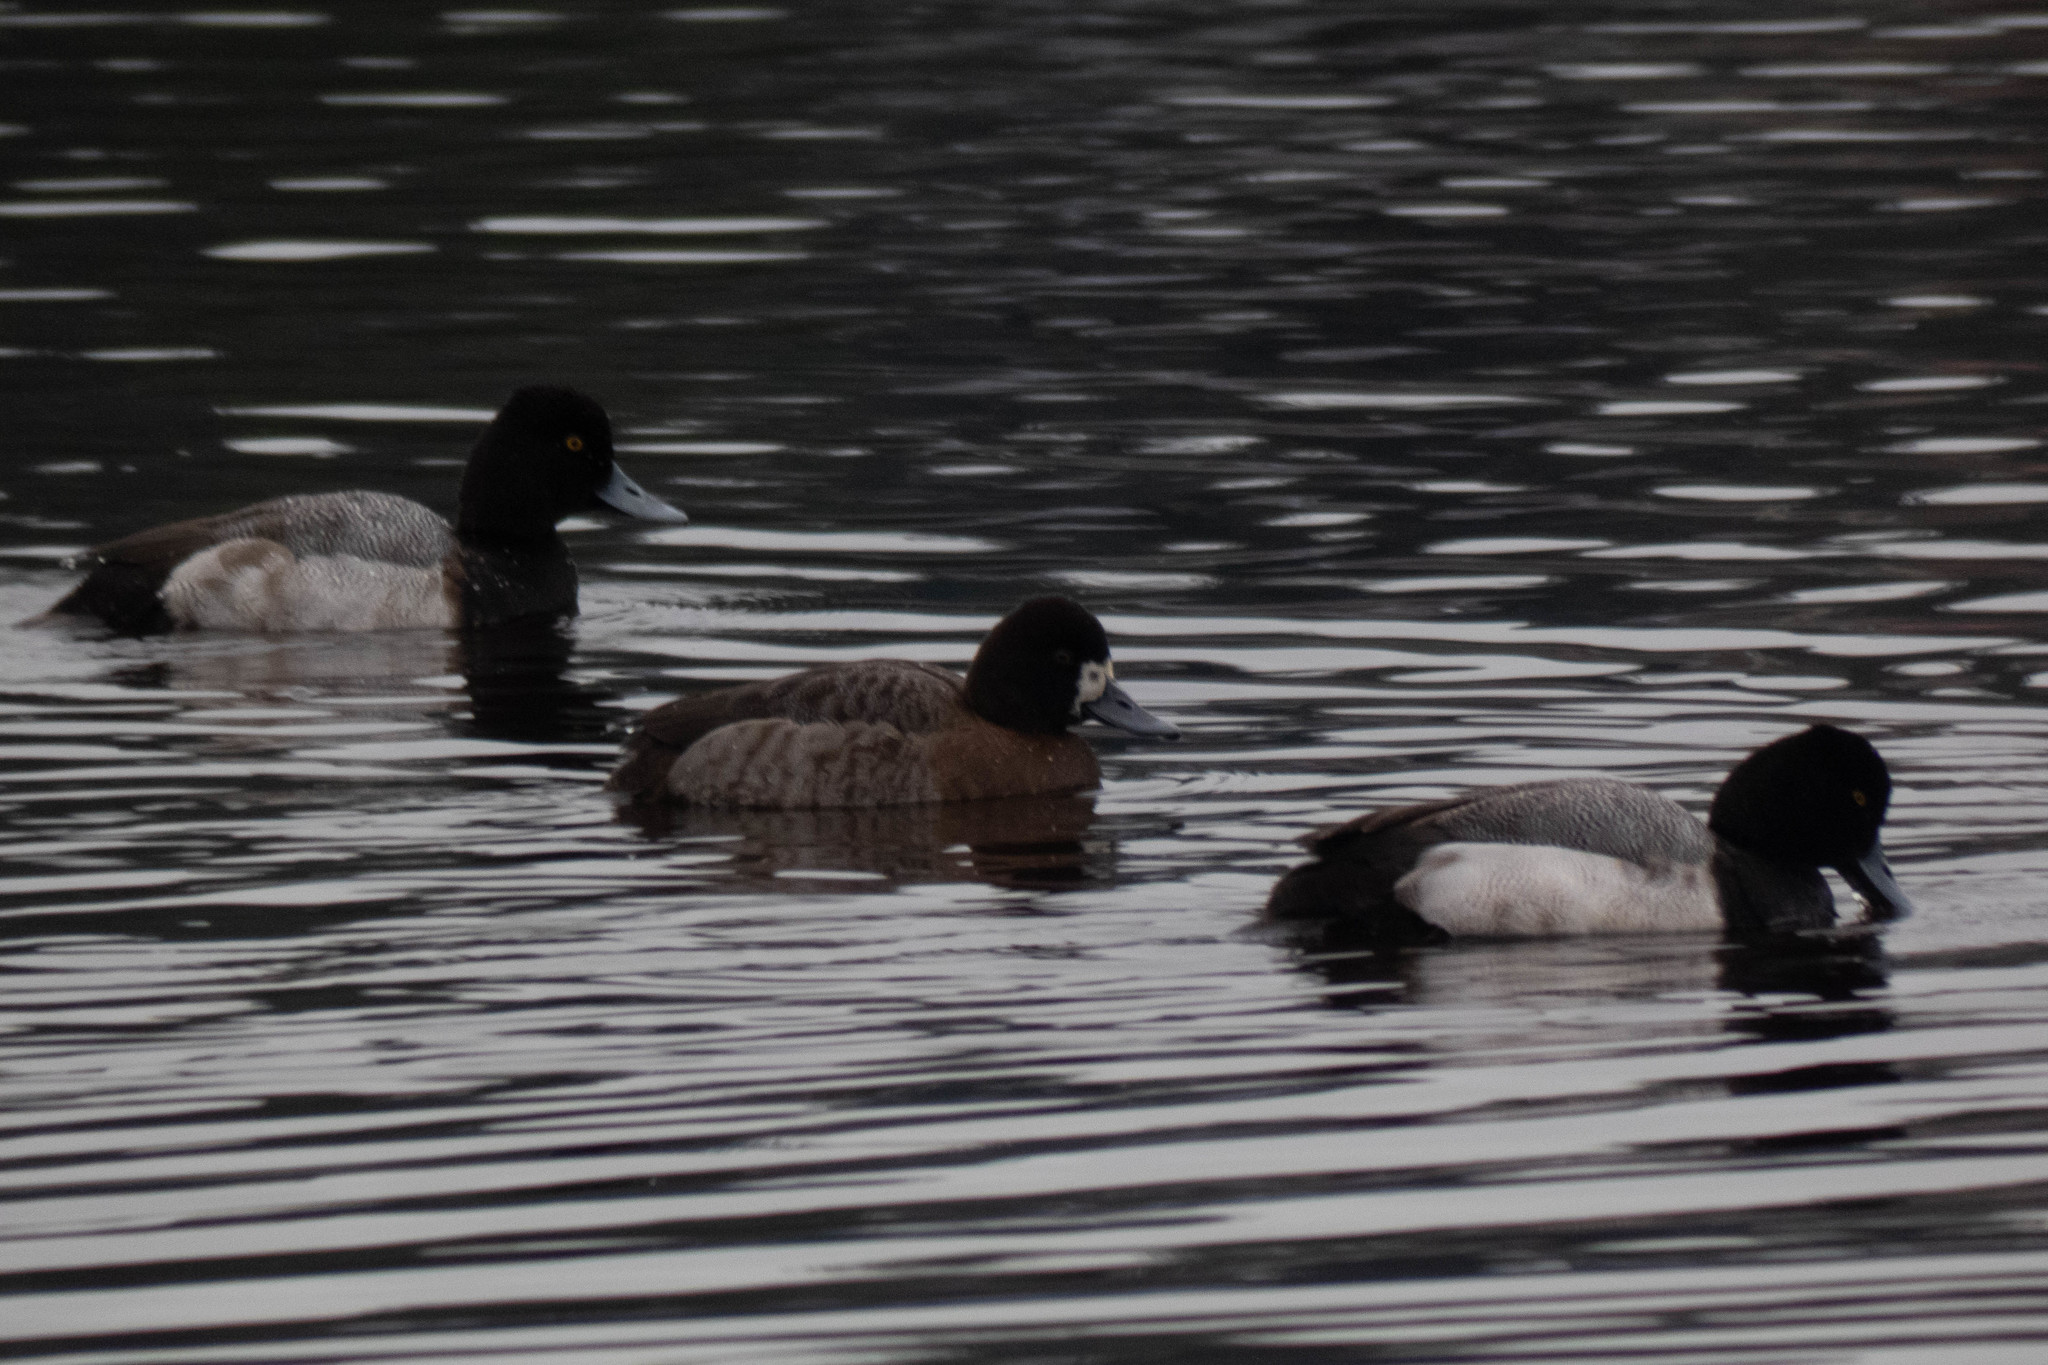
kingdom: Animalia
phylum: Chordata
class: Aves
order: Anseriformes
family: Anatidae
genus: Aythya
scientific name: Aythya affinis
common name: Lesser scaup
